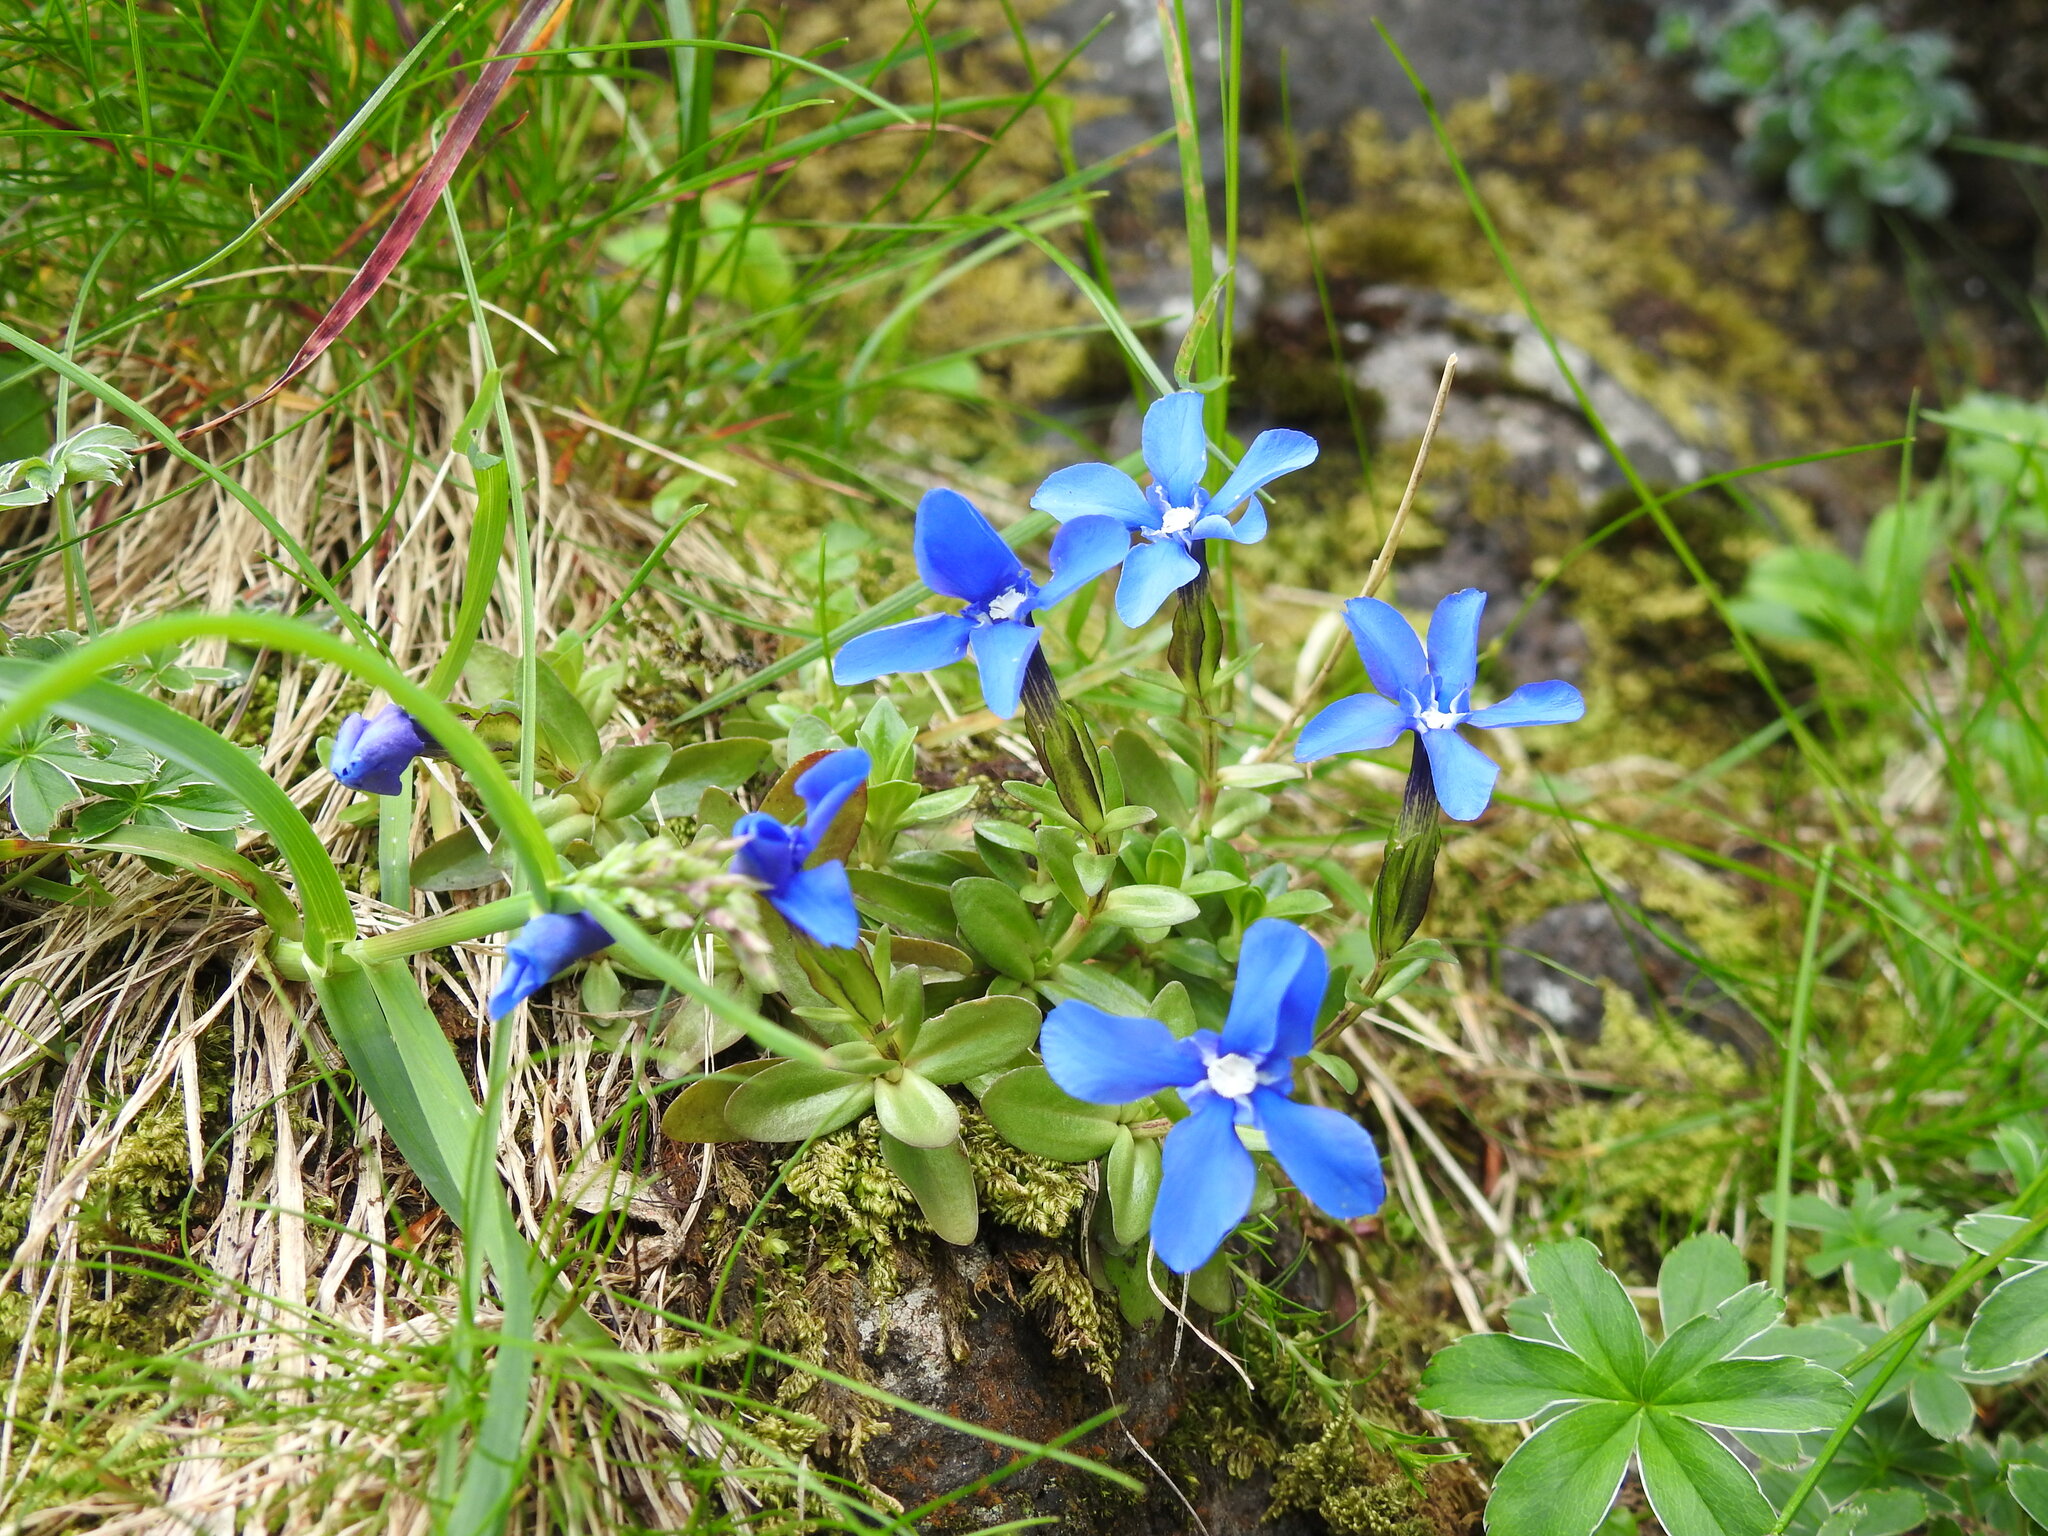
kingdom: Plantae
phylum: Tracheophyta
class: Magnoliopsida
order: Gentianales
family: Gentianaceae
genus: Gentiana
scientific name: Gentiana verna
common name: Spring gentian
